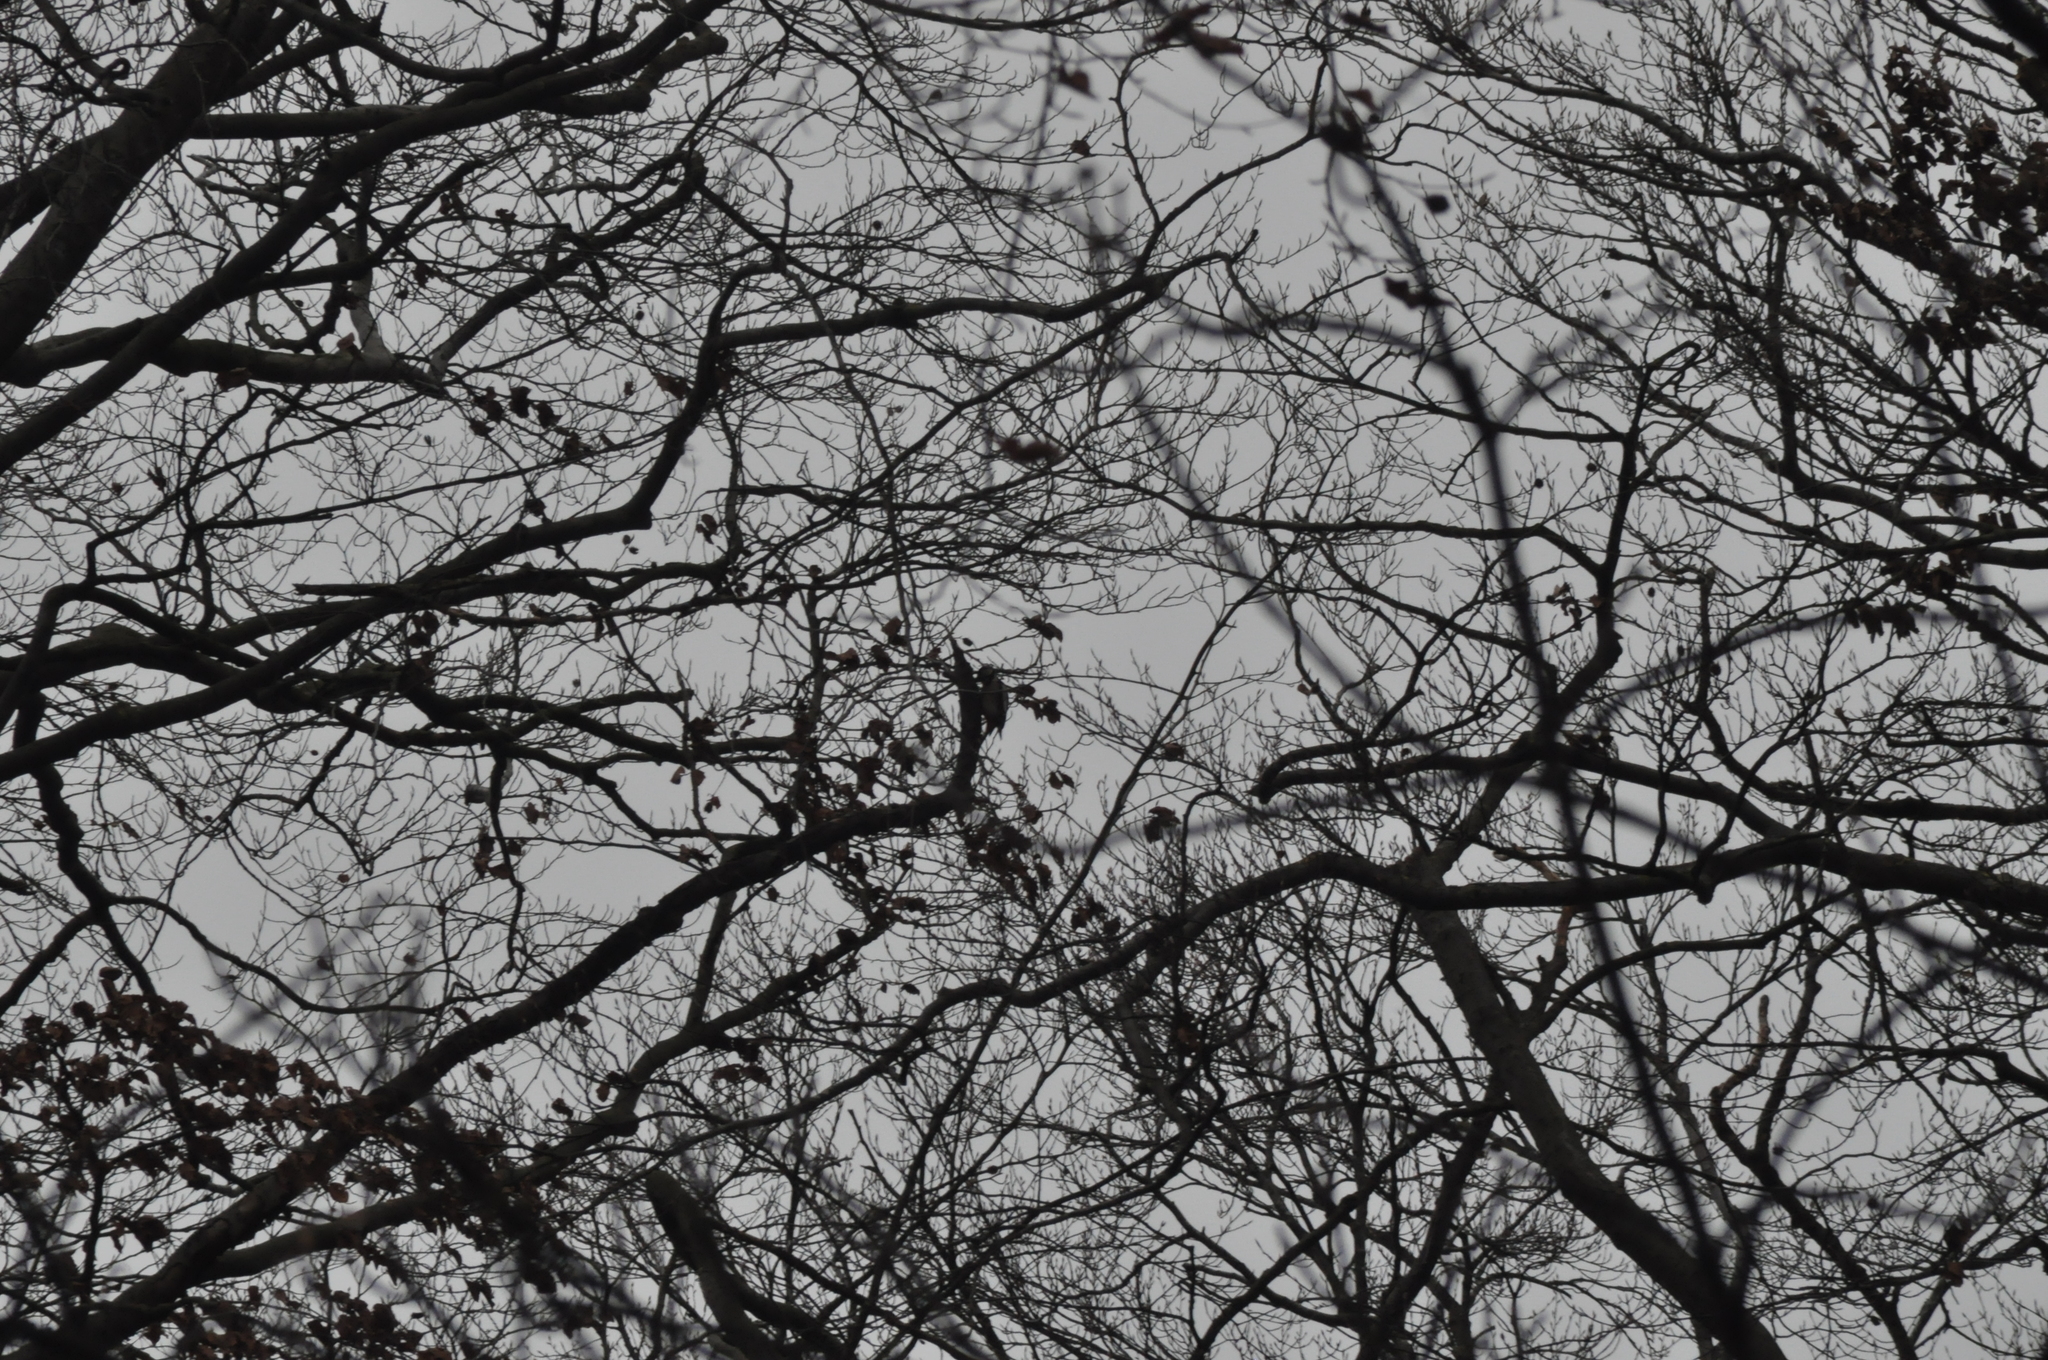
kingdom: Animalia
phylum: Chordata
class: Aves
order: Piciformes
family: Picidae
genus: Dendrocopos
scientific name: Dendrocopos major
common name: Great spotted woodpecker
